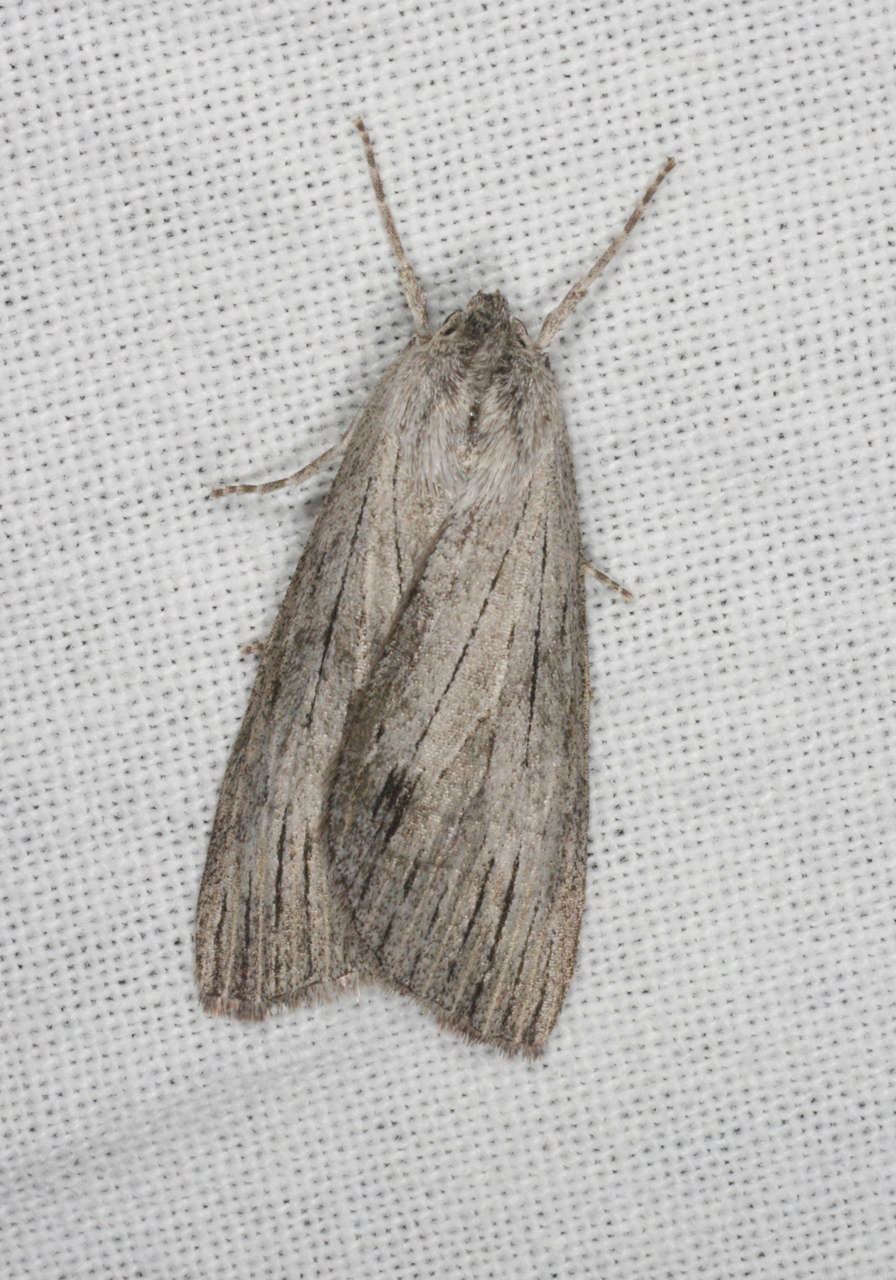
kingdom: Animalia
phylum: Arthropoda
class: Insecta
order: Lepidoptera
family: Geometridae
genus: Chlenias
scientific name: Chlenias stenosticha
